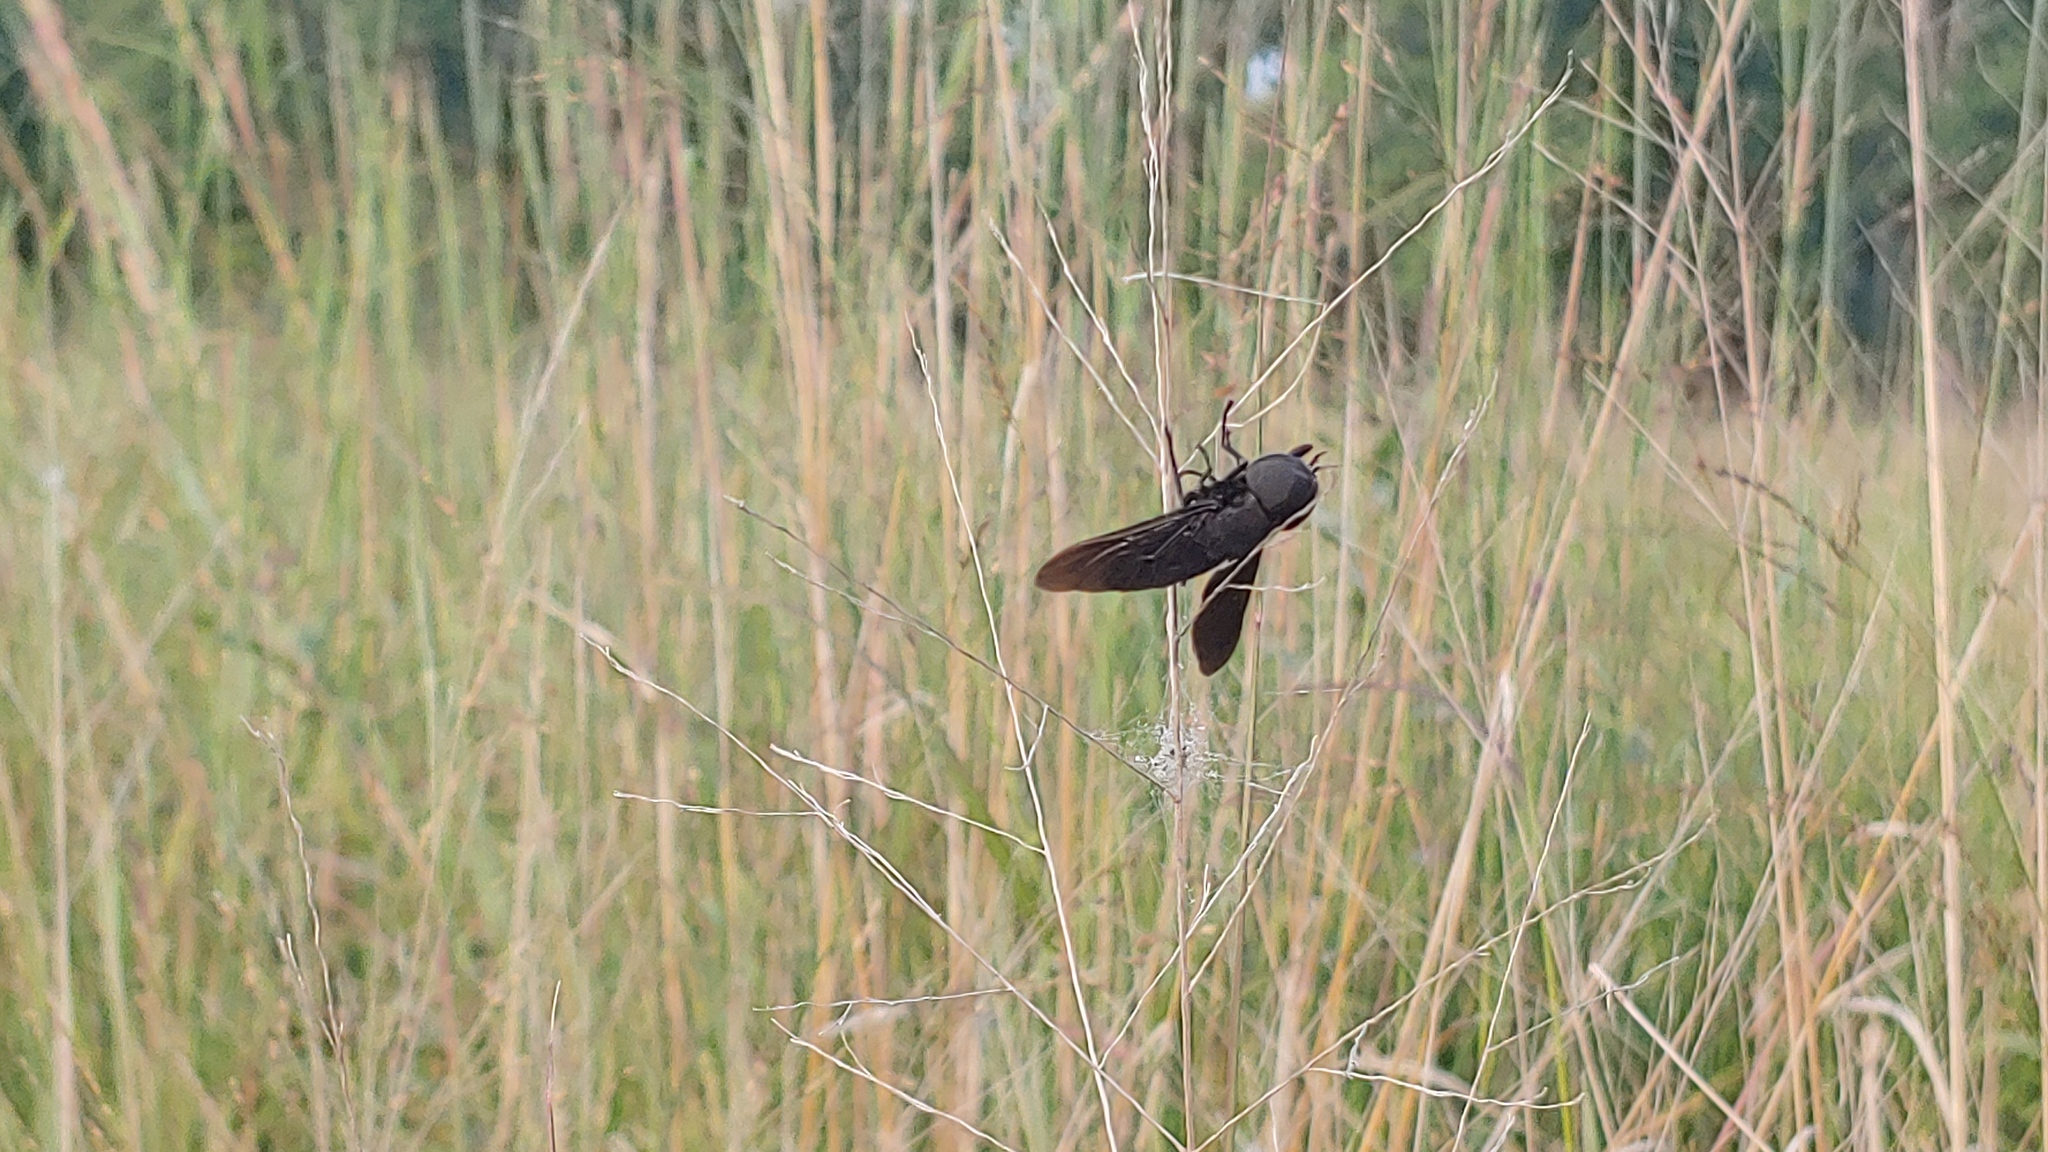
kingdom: Animalia
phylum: Arthropoda
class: Insecta
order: Diptera
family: Tabanidae
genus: Tabanus
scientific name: Tabanus atratus
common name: Black horse fly
